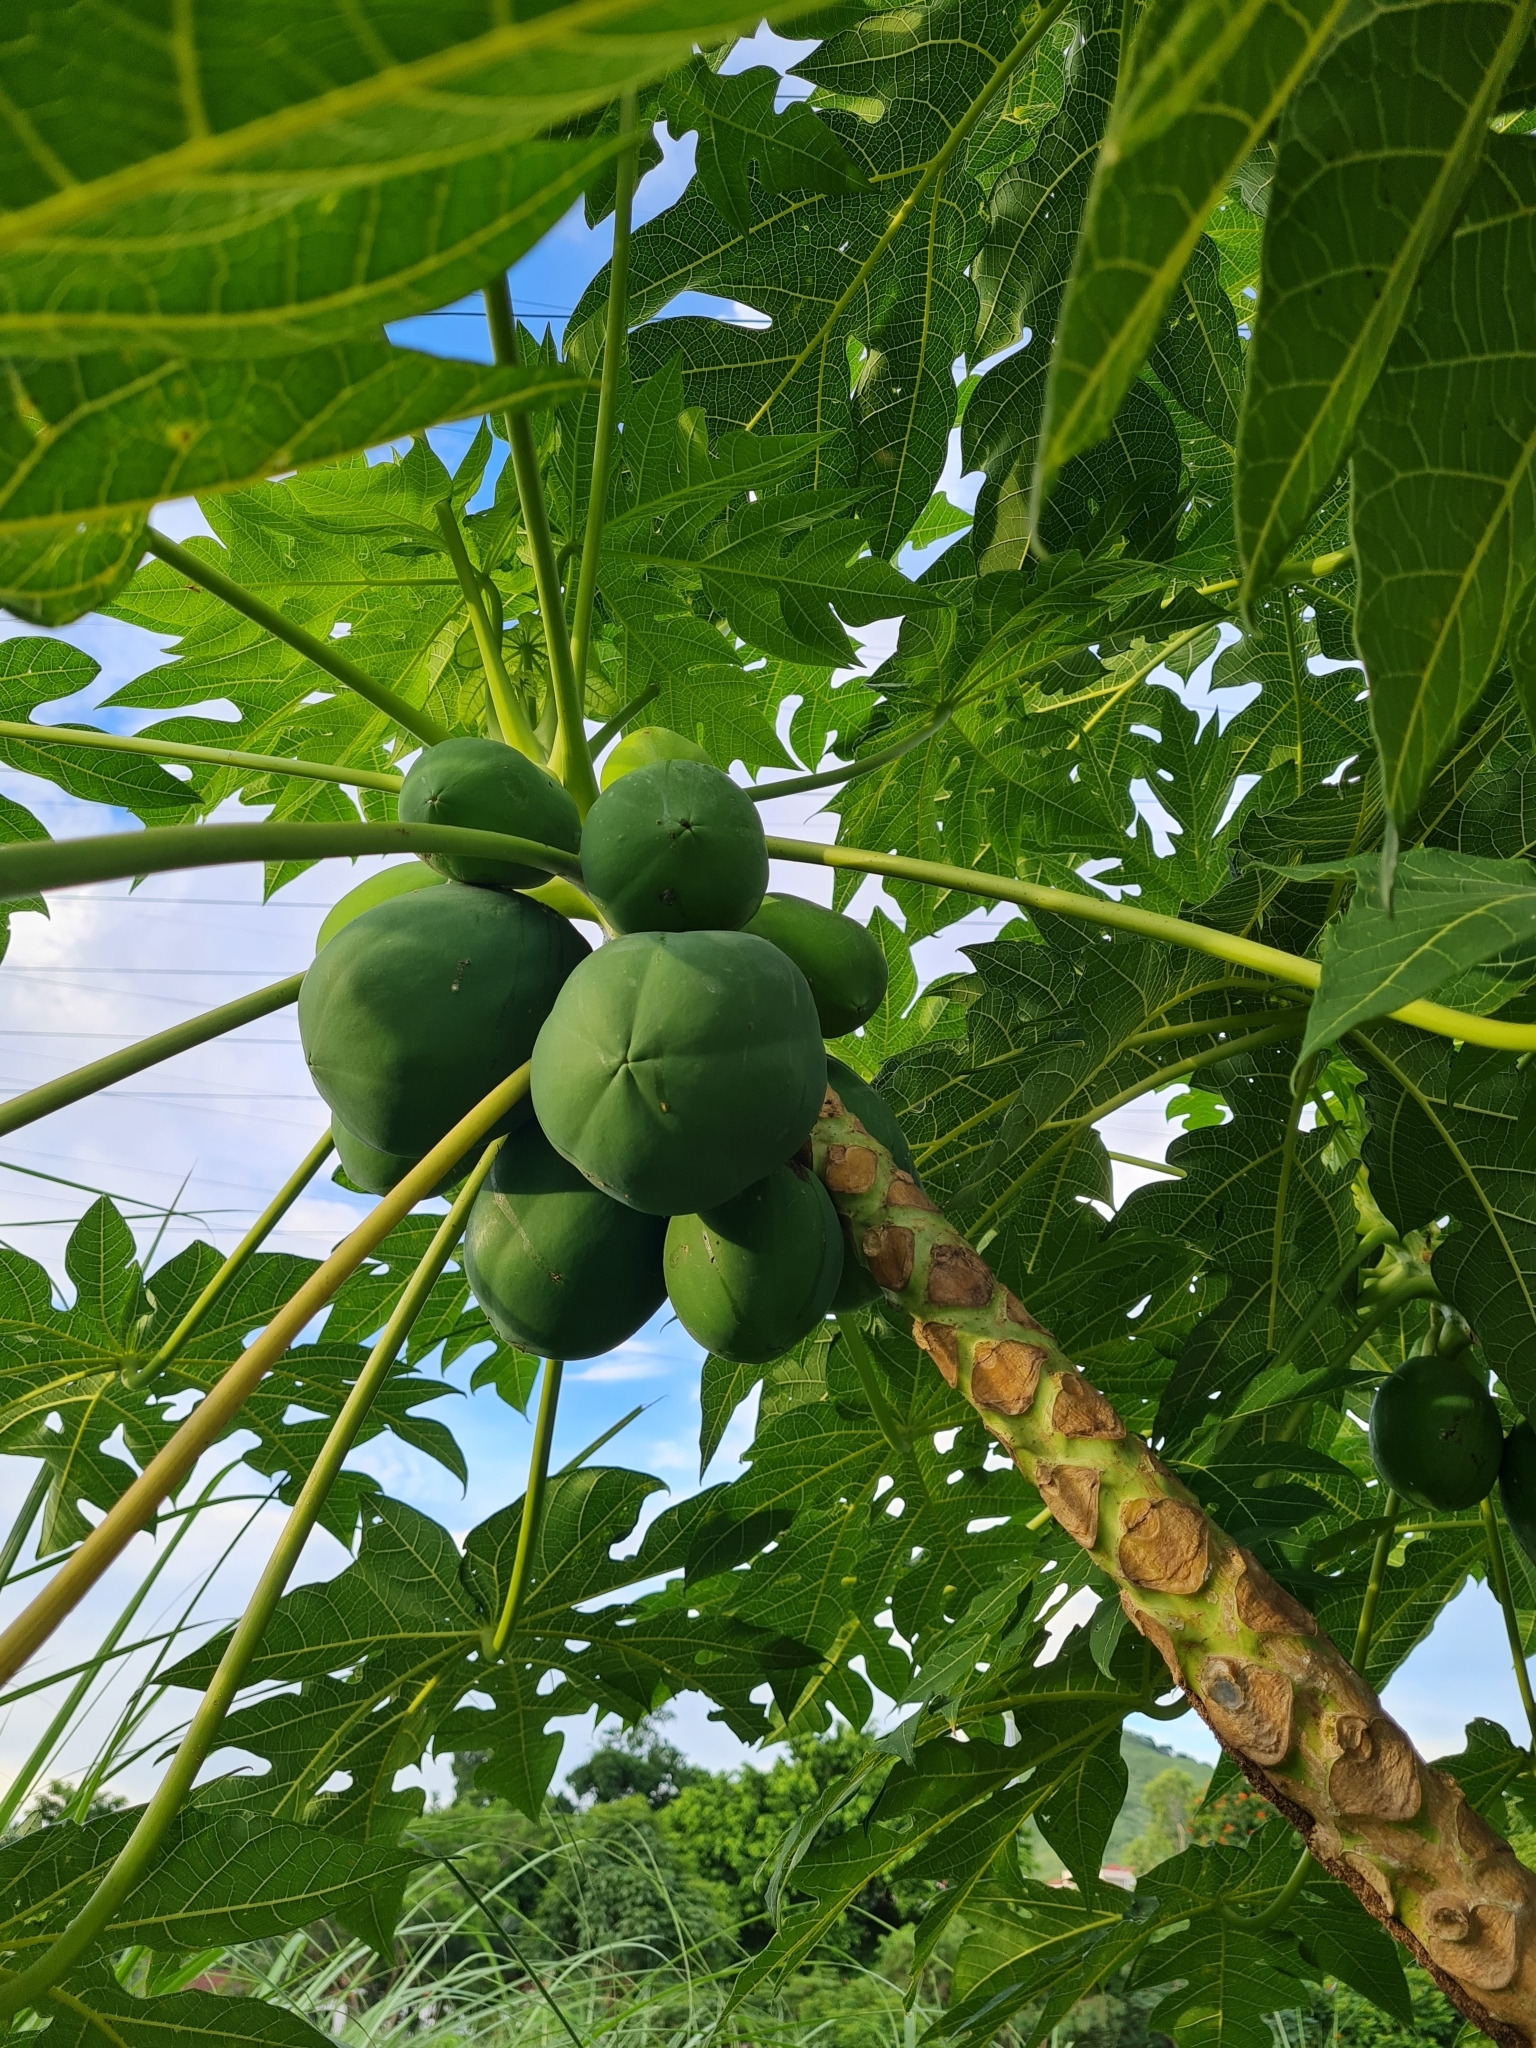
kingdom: Plantae
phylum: Tracheophyta
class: Magnoliopsida
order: Brassicales
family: Caricaceae
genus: Carica
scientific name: Carica papaya
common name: Papaya
